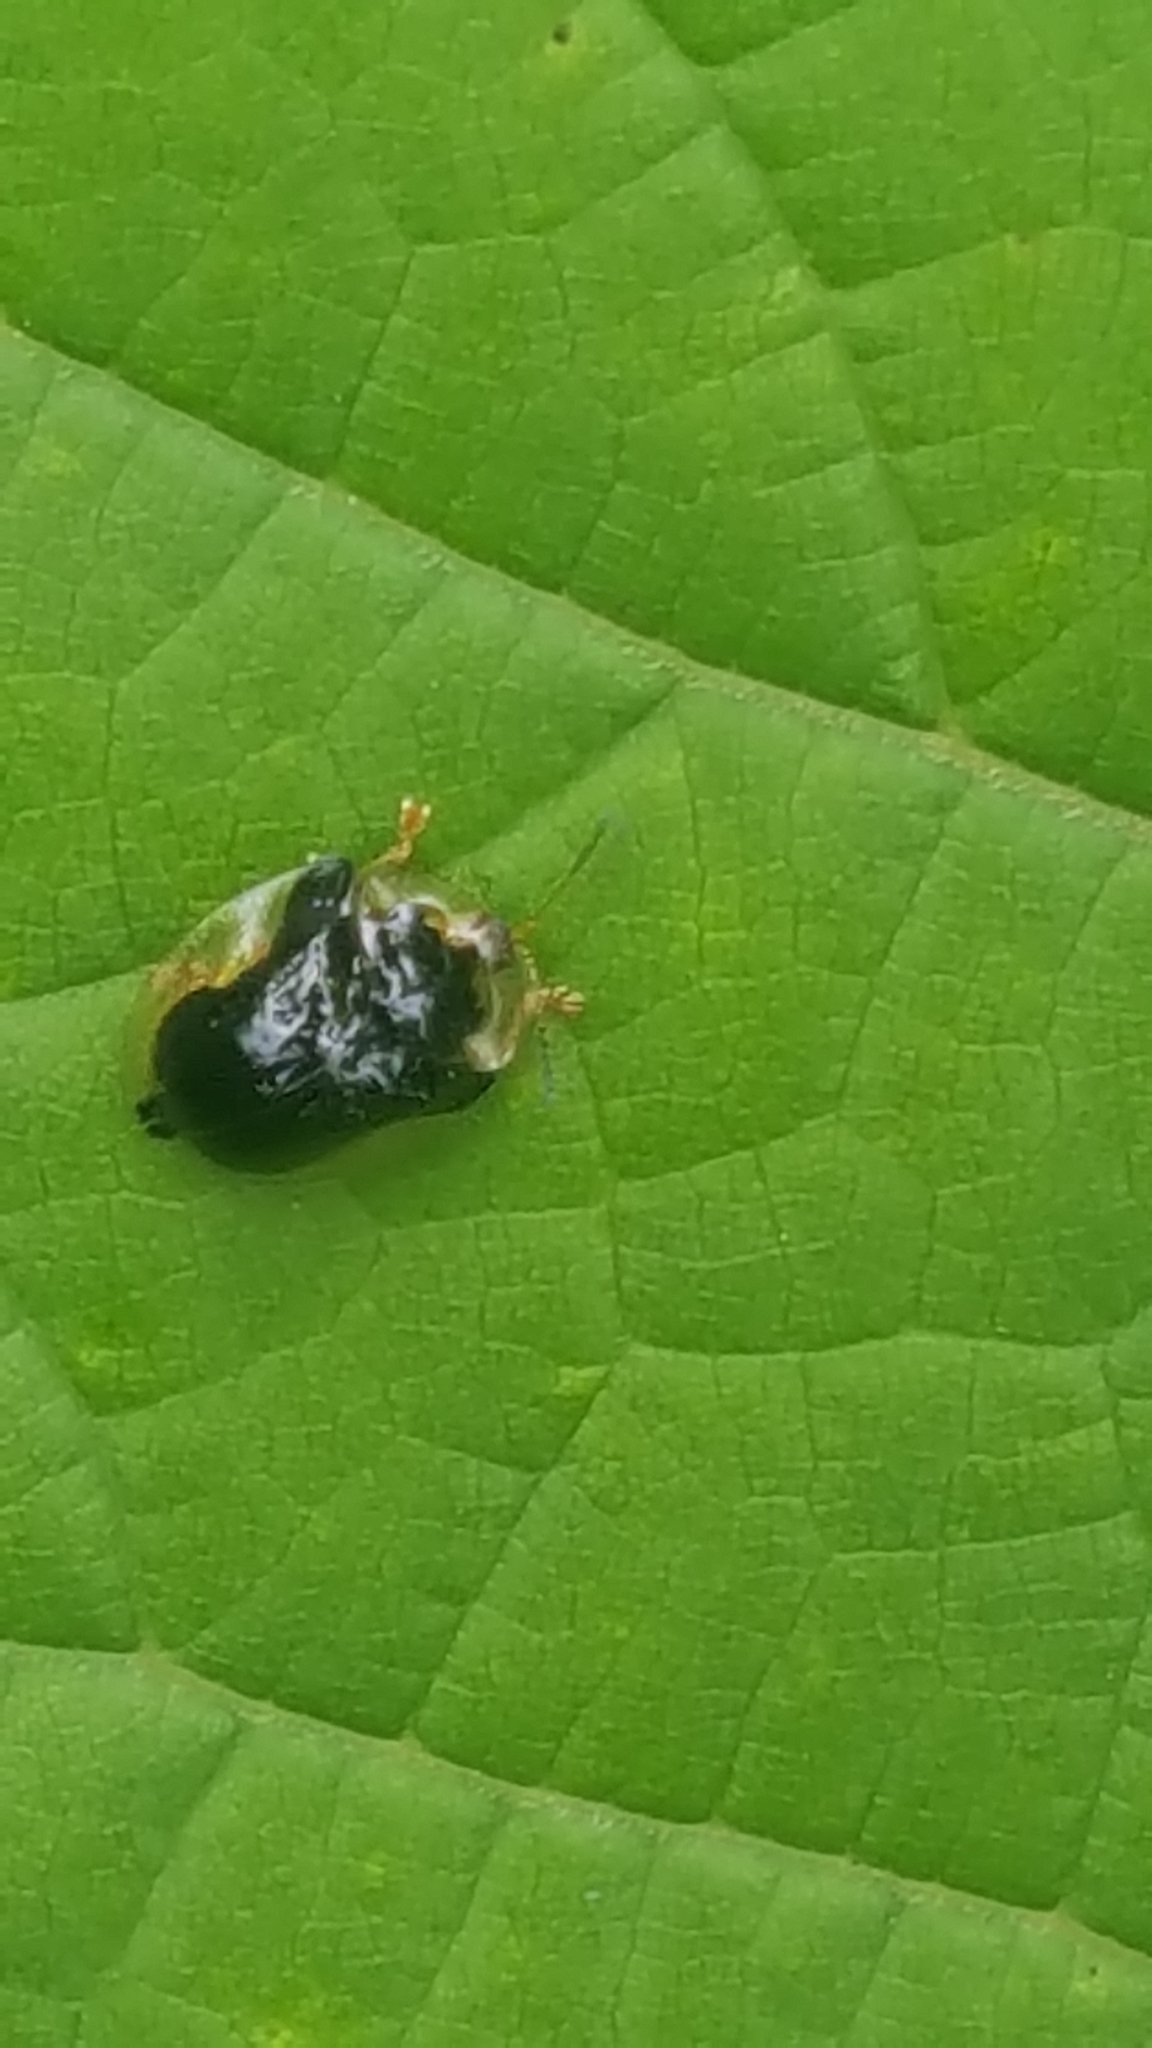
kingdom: Animalia
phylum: Arthropoda
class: Insecta
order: Coleoptera
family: Chrysomelidae
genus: Deloyala
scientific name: Deloyala guttata
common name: Mottled tortoise beetle
